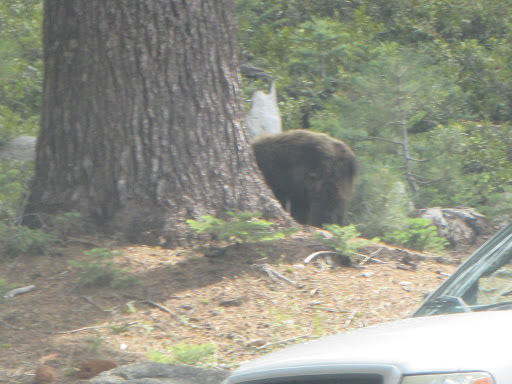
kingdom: Animalia
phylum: Chordata
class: Mammalia
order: Carnivora
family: Ursidae
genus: Ursus
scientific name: Ursus americanus
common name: American black bear
